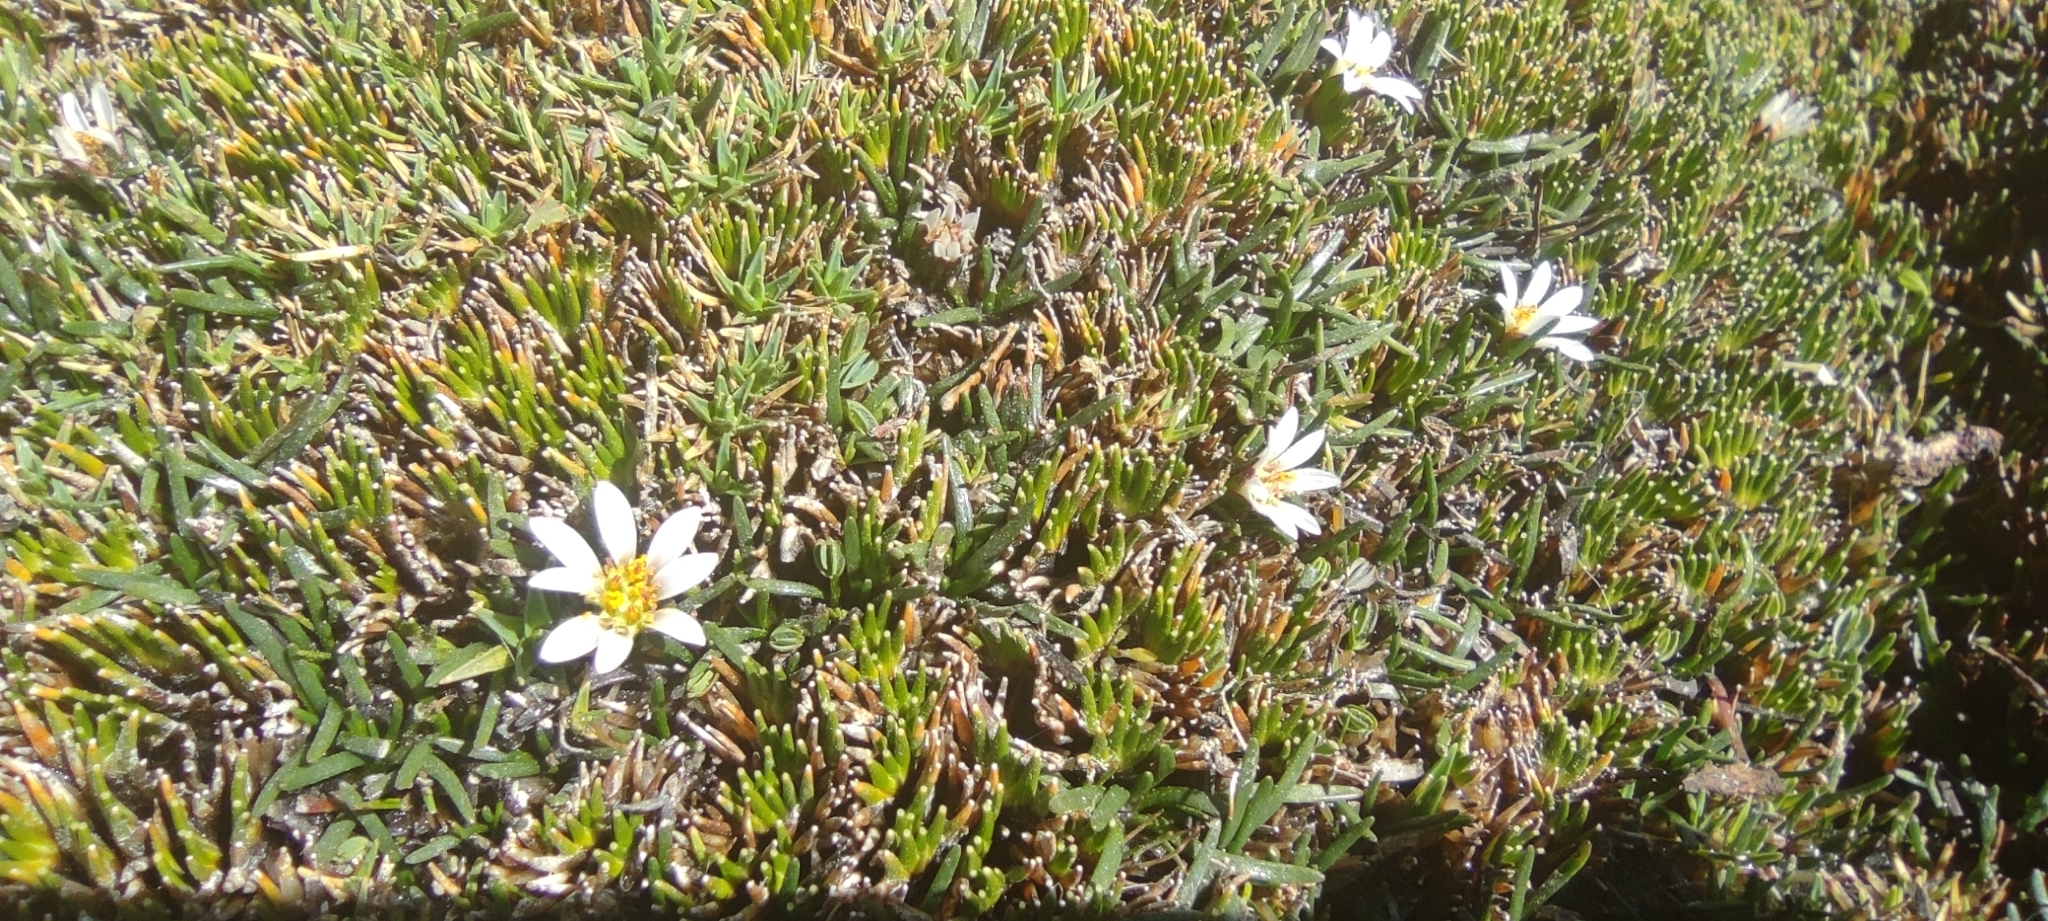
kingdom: Plantae
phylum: Tracheophyta
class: Magnoliopsida
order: Asterales
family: Asteraceae
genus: Rockhausenia
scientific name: Rockhausenia pygmaea
